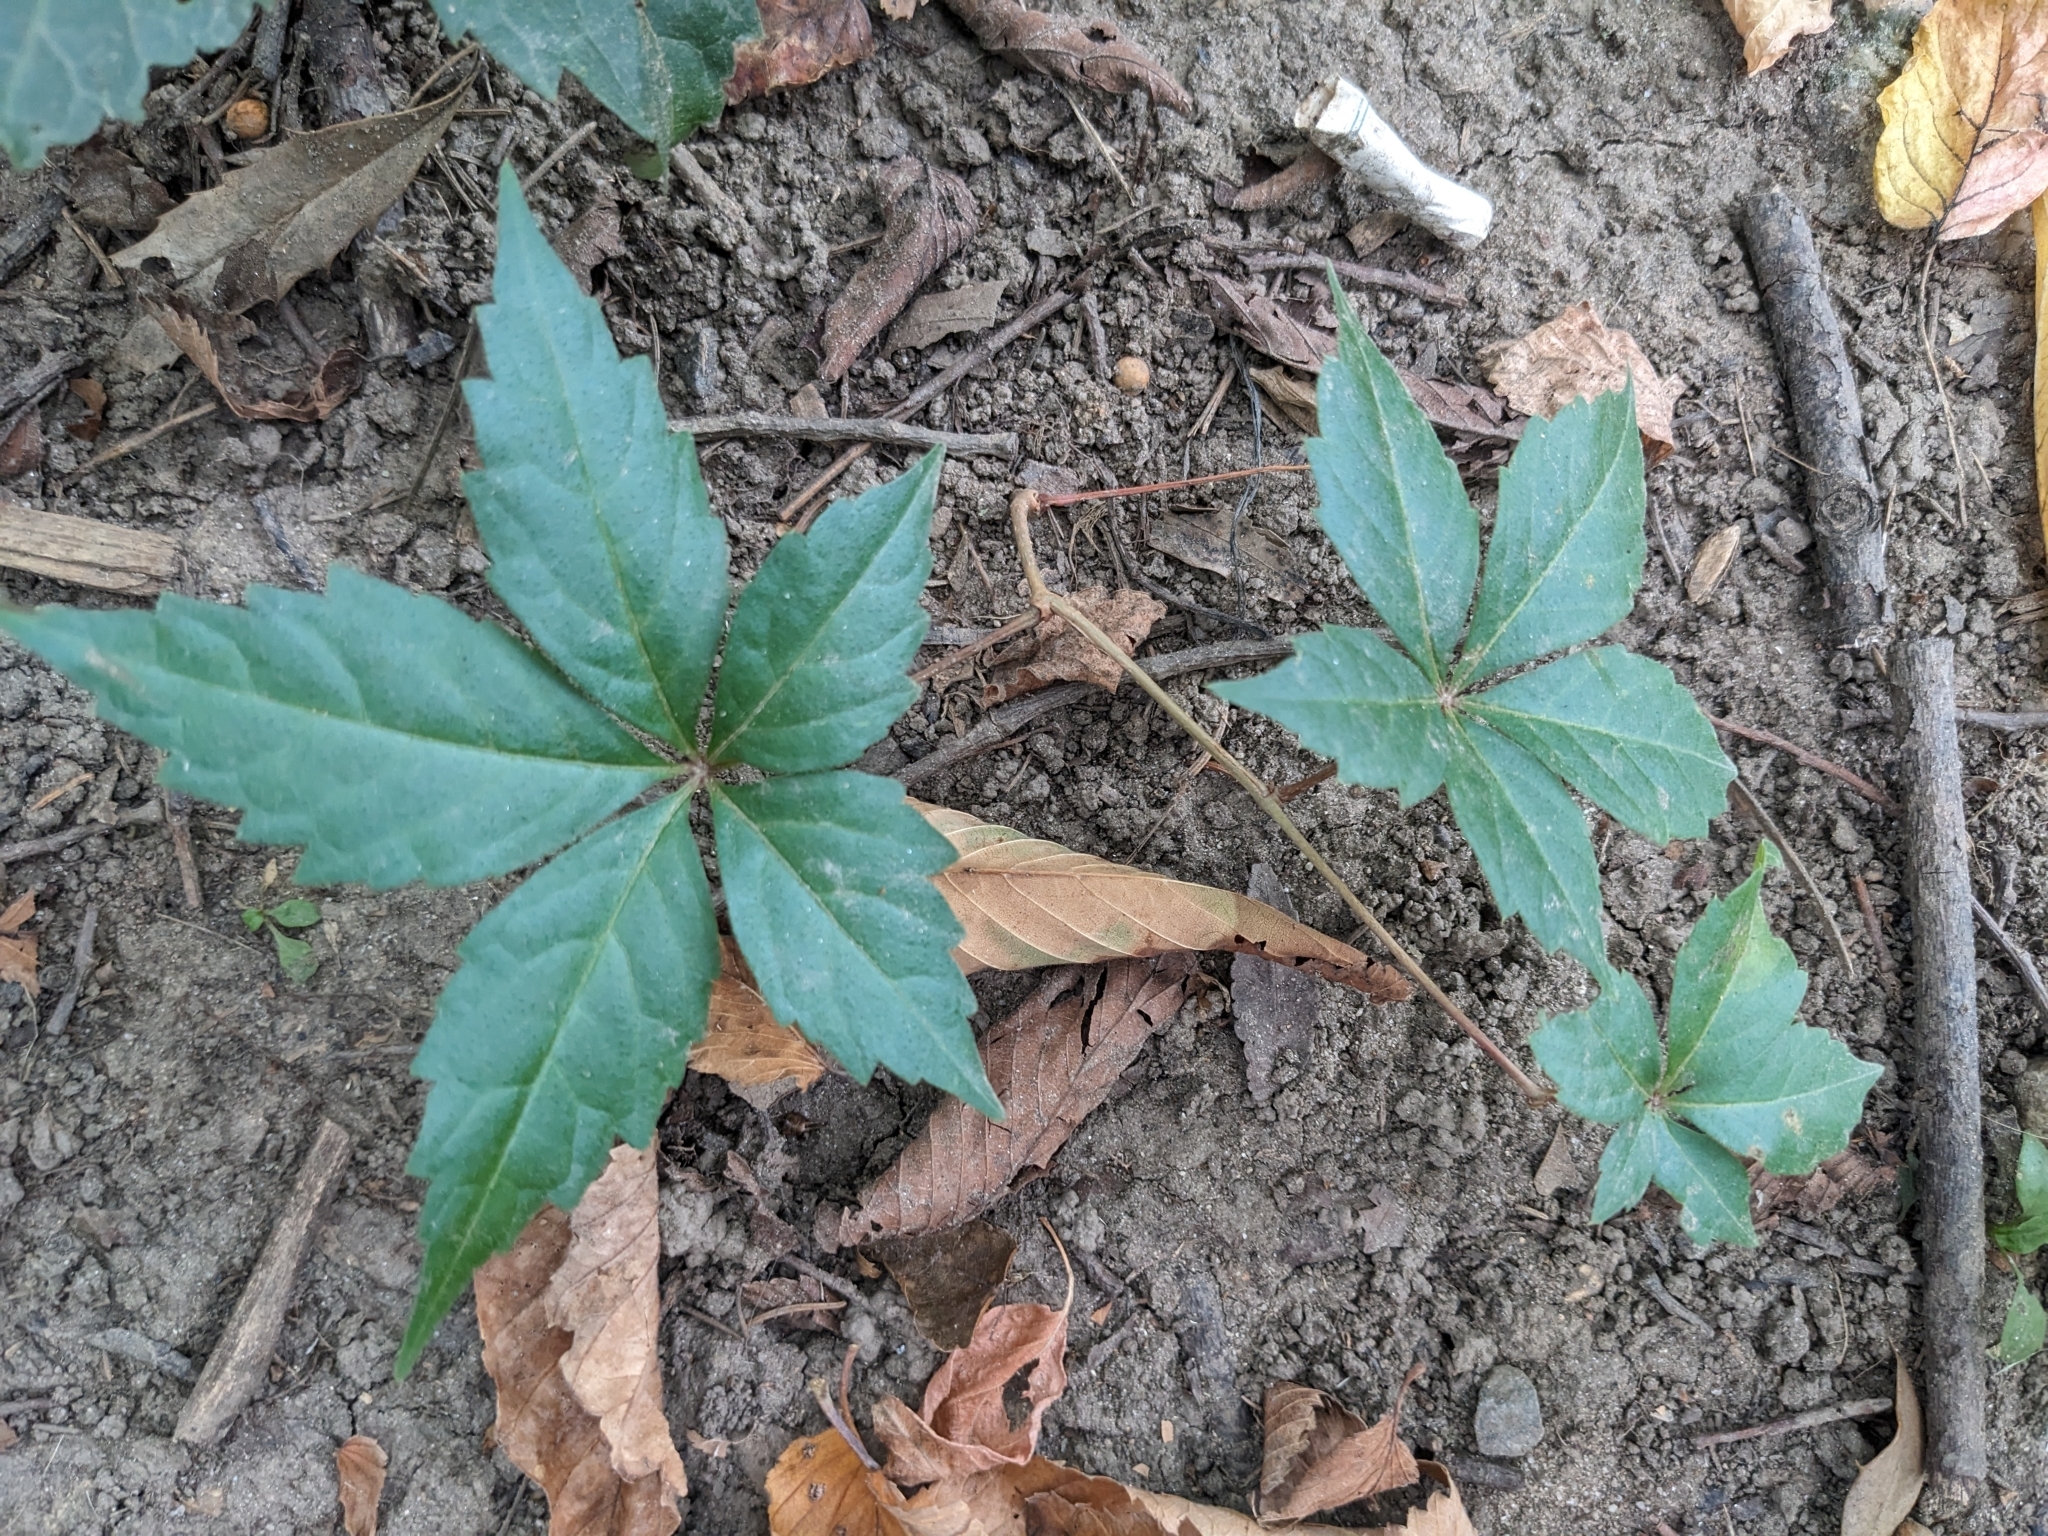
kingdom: Plantae
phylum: Tracheophyta
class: Magnoliopsida
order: Vitales
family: Vitaceae
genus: Parthenocissus
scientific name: Parthenocissus quinquefolia
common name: Virginia-creeper
